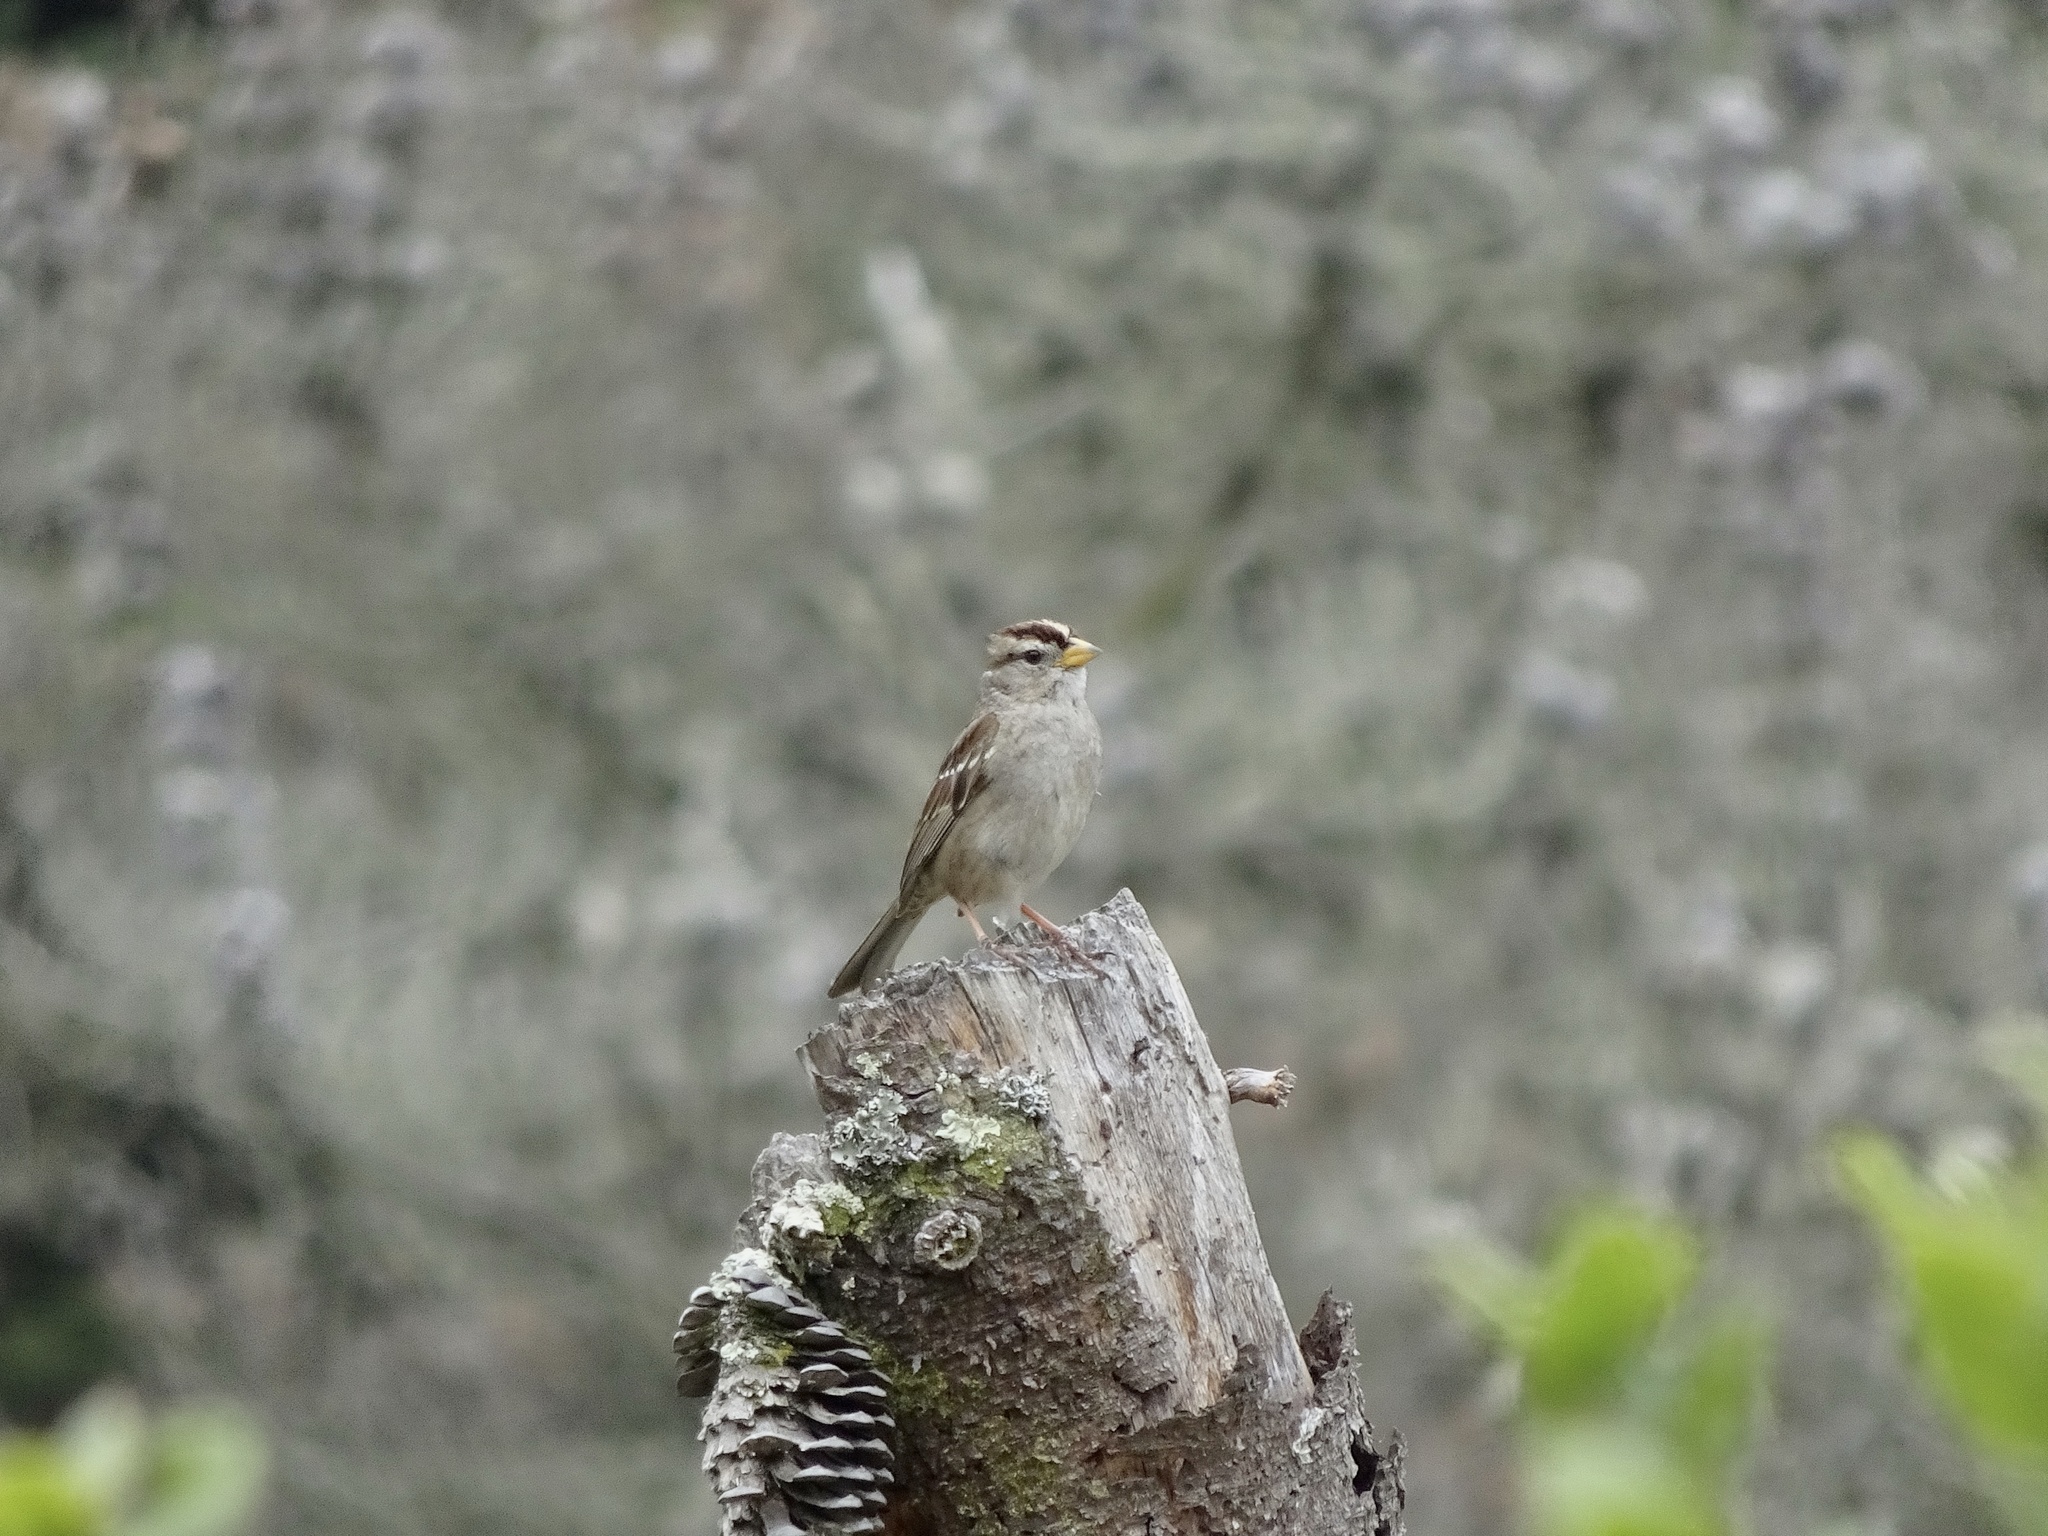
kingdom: Animalia
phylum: Chordata
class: Aves
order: Passeriformes
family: Passerellidae
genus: Zonotrichia
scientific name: Zonotrichia leucophrys
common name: White-crowned sparrow
